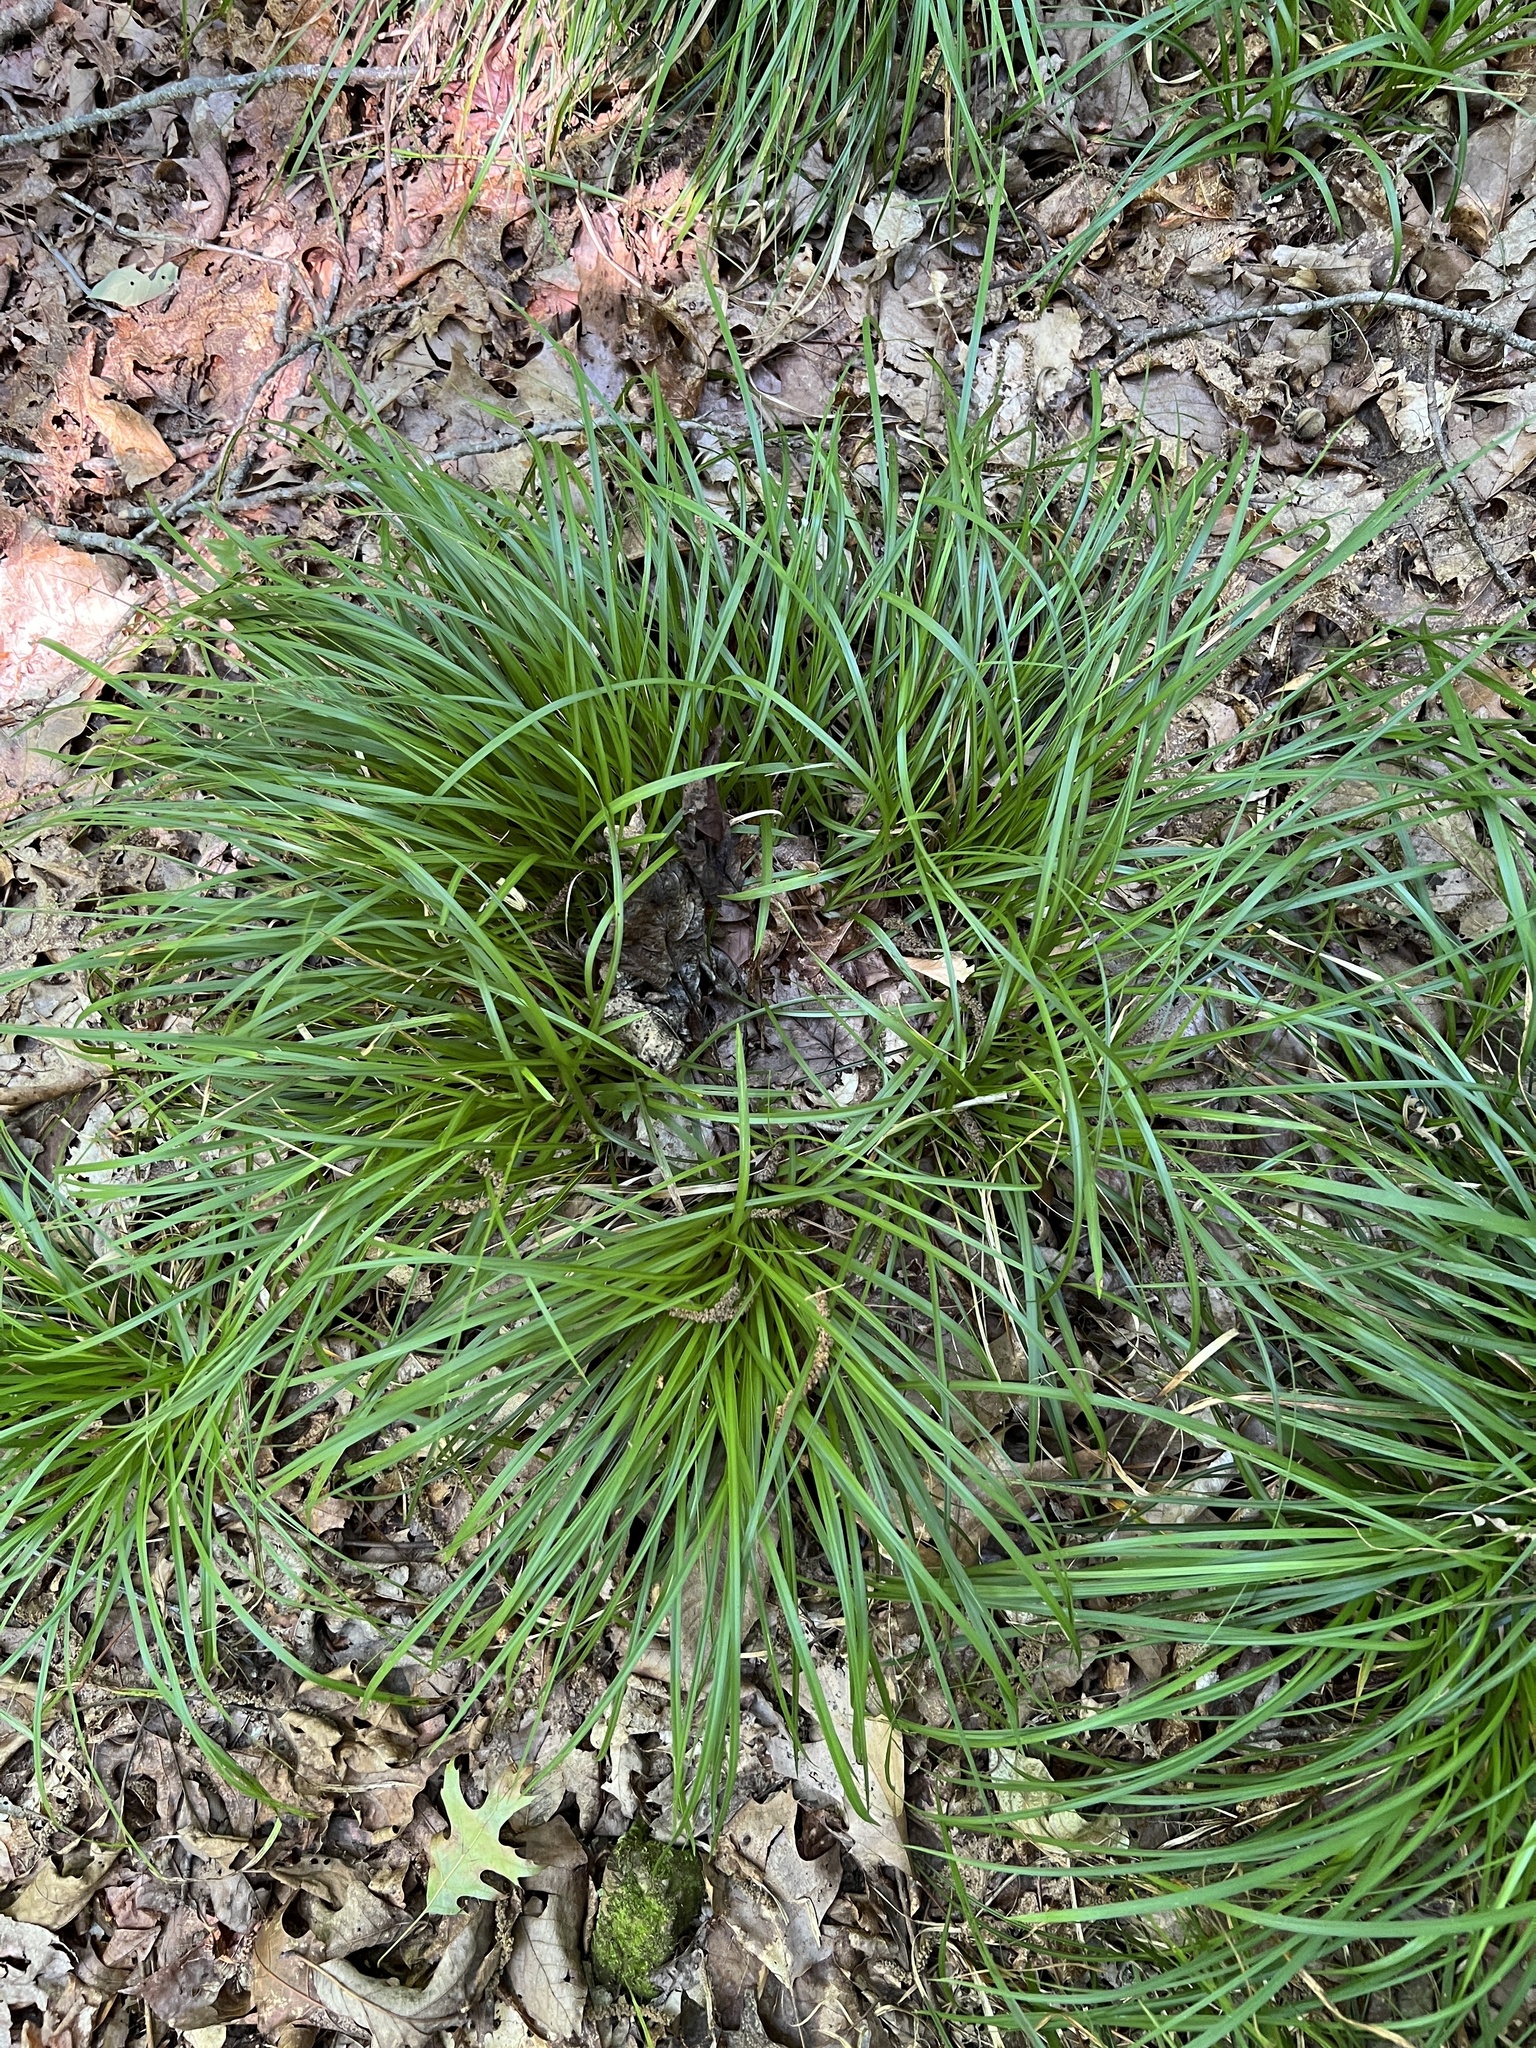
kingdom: Plantae
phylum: Tracheophyta
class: Liliopsida
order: Poales
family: Cyperaceae
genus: Carex
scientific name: Carex picta
